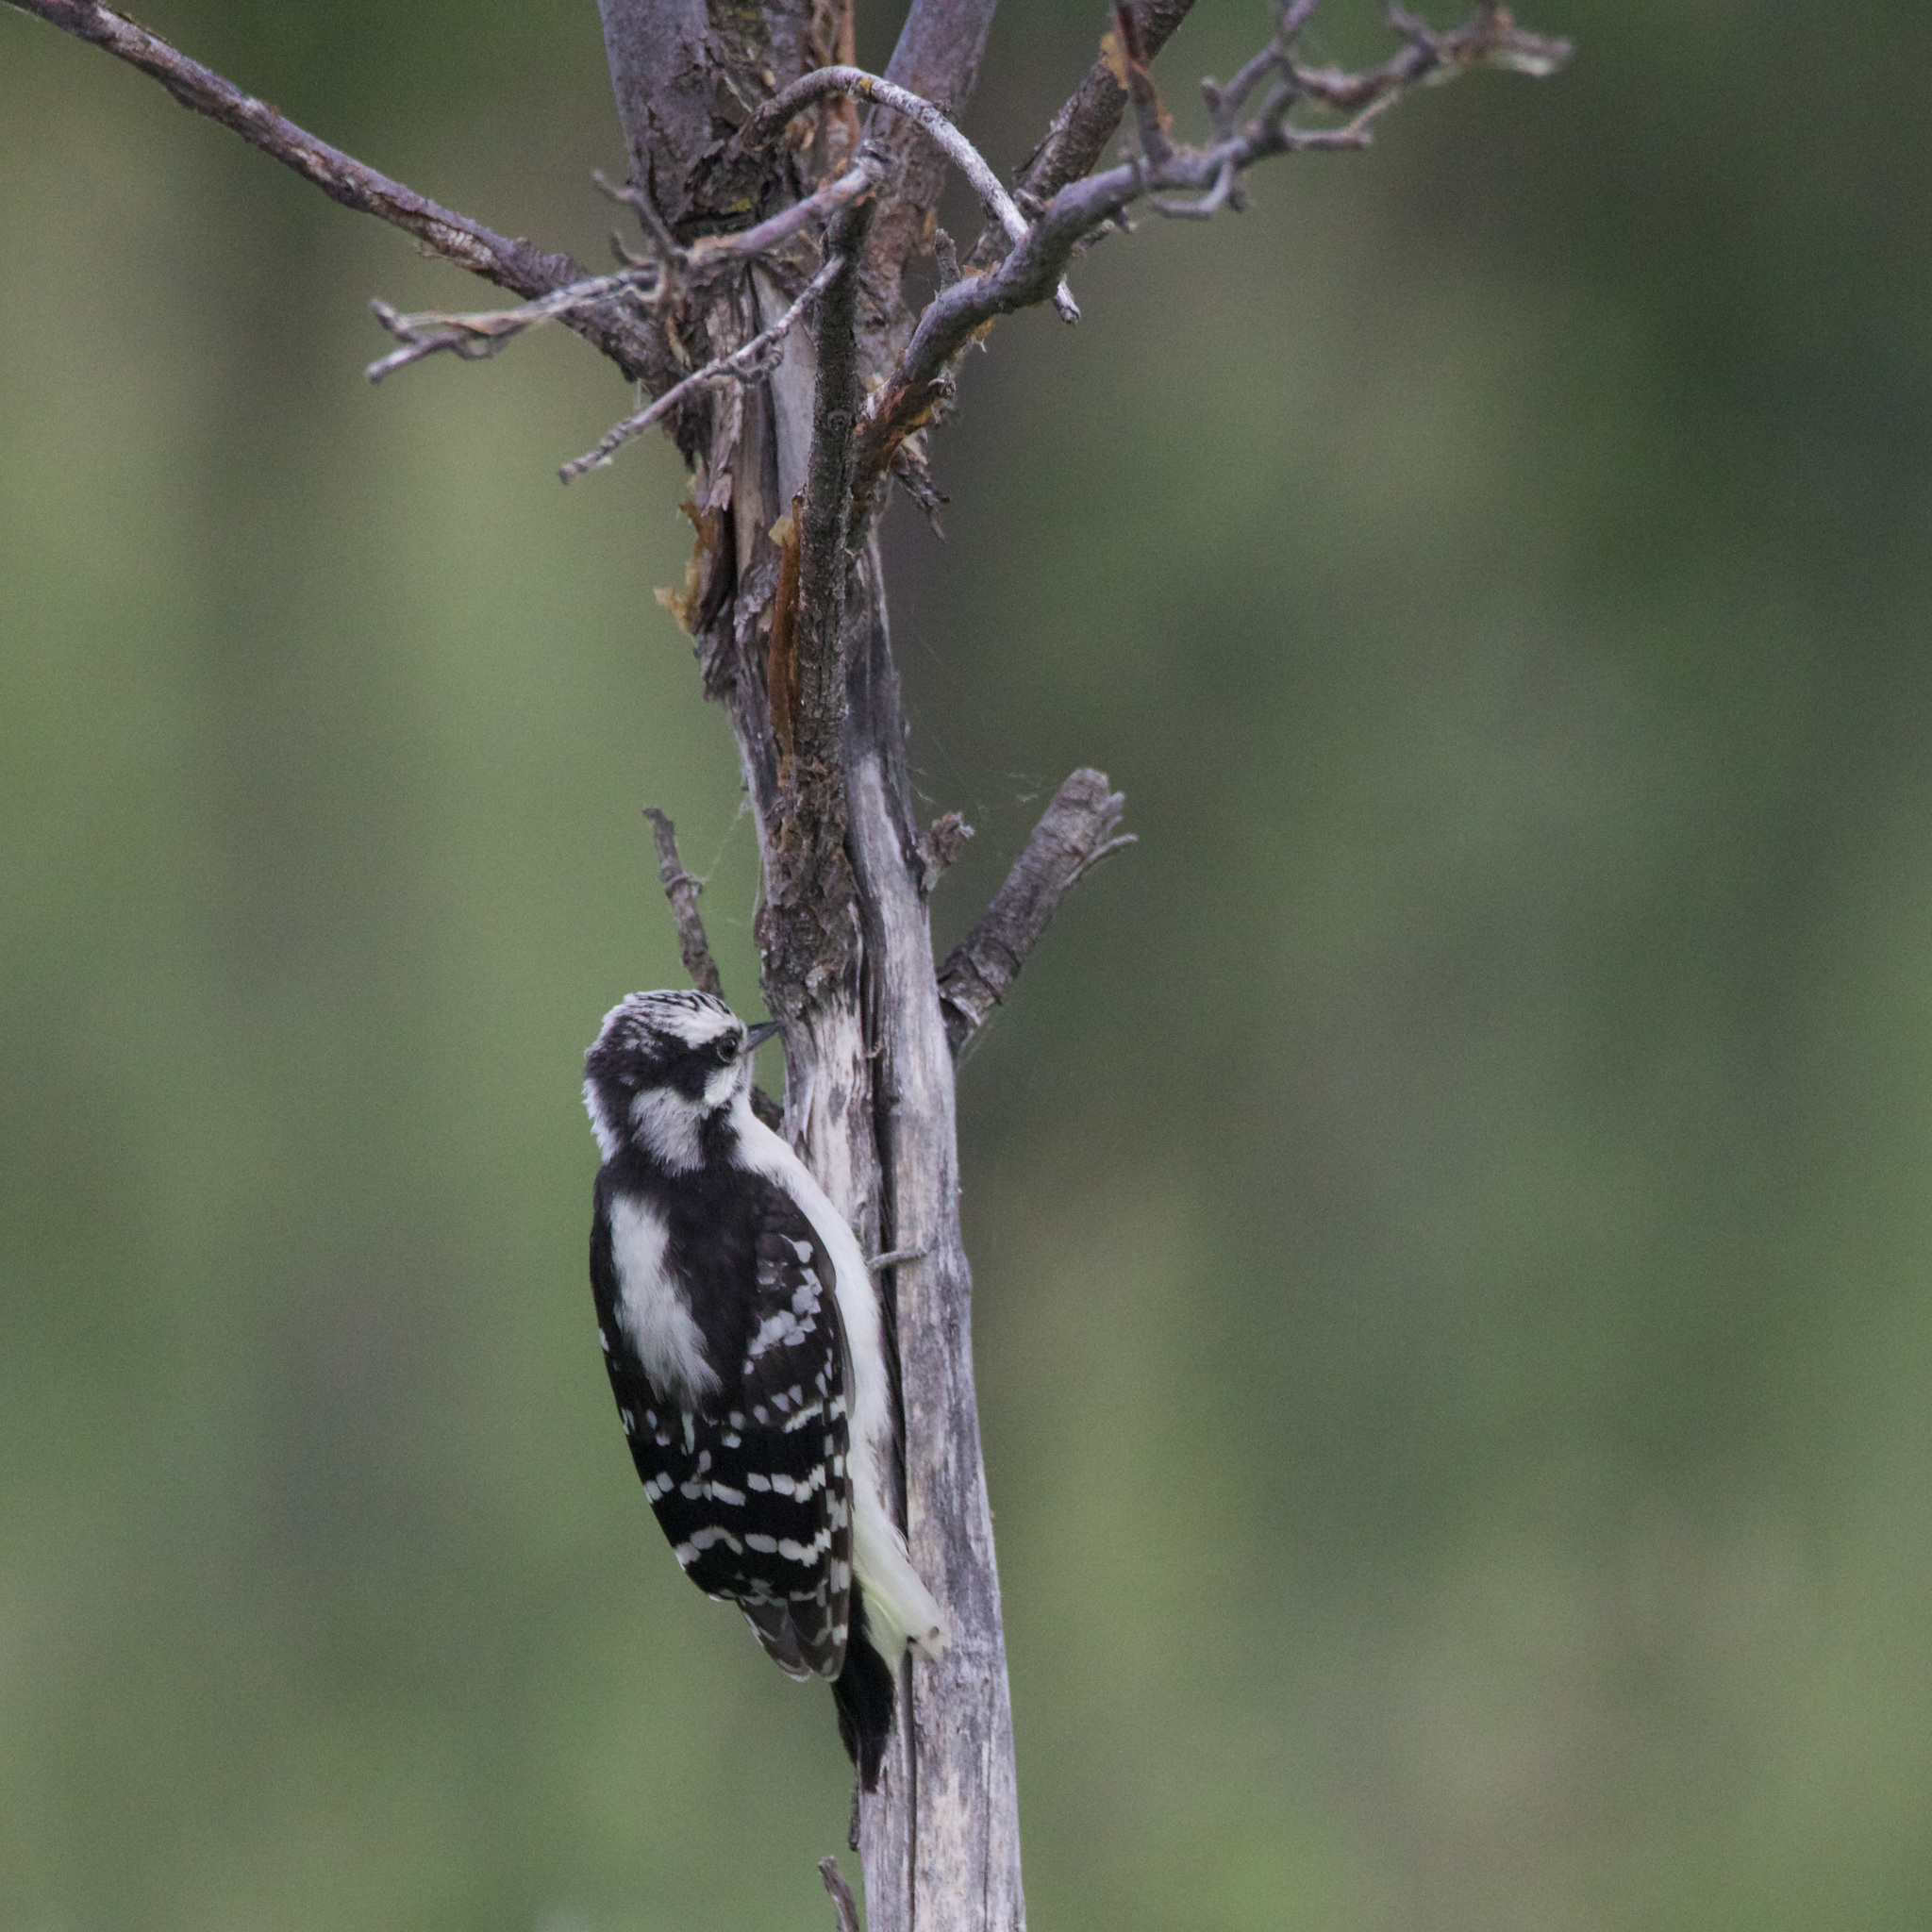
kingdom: Animalia
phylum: Chordata
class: Aves
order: Piciformes
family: Picidae
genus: Dryobates
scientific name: Dryobates pubescens
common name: Downy woodpecker
